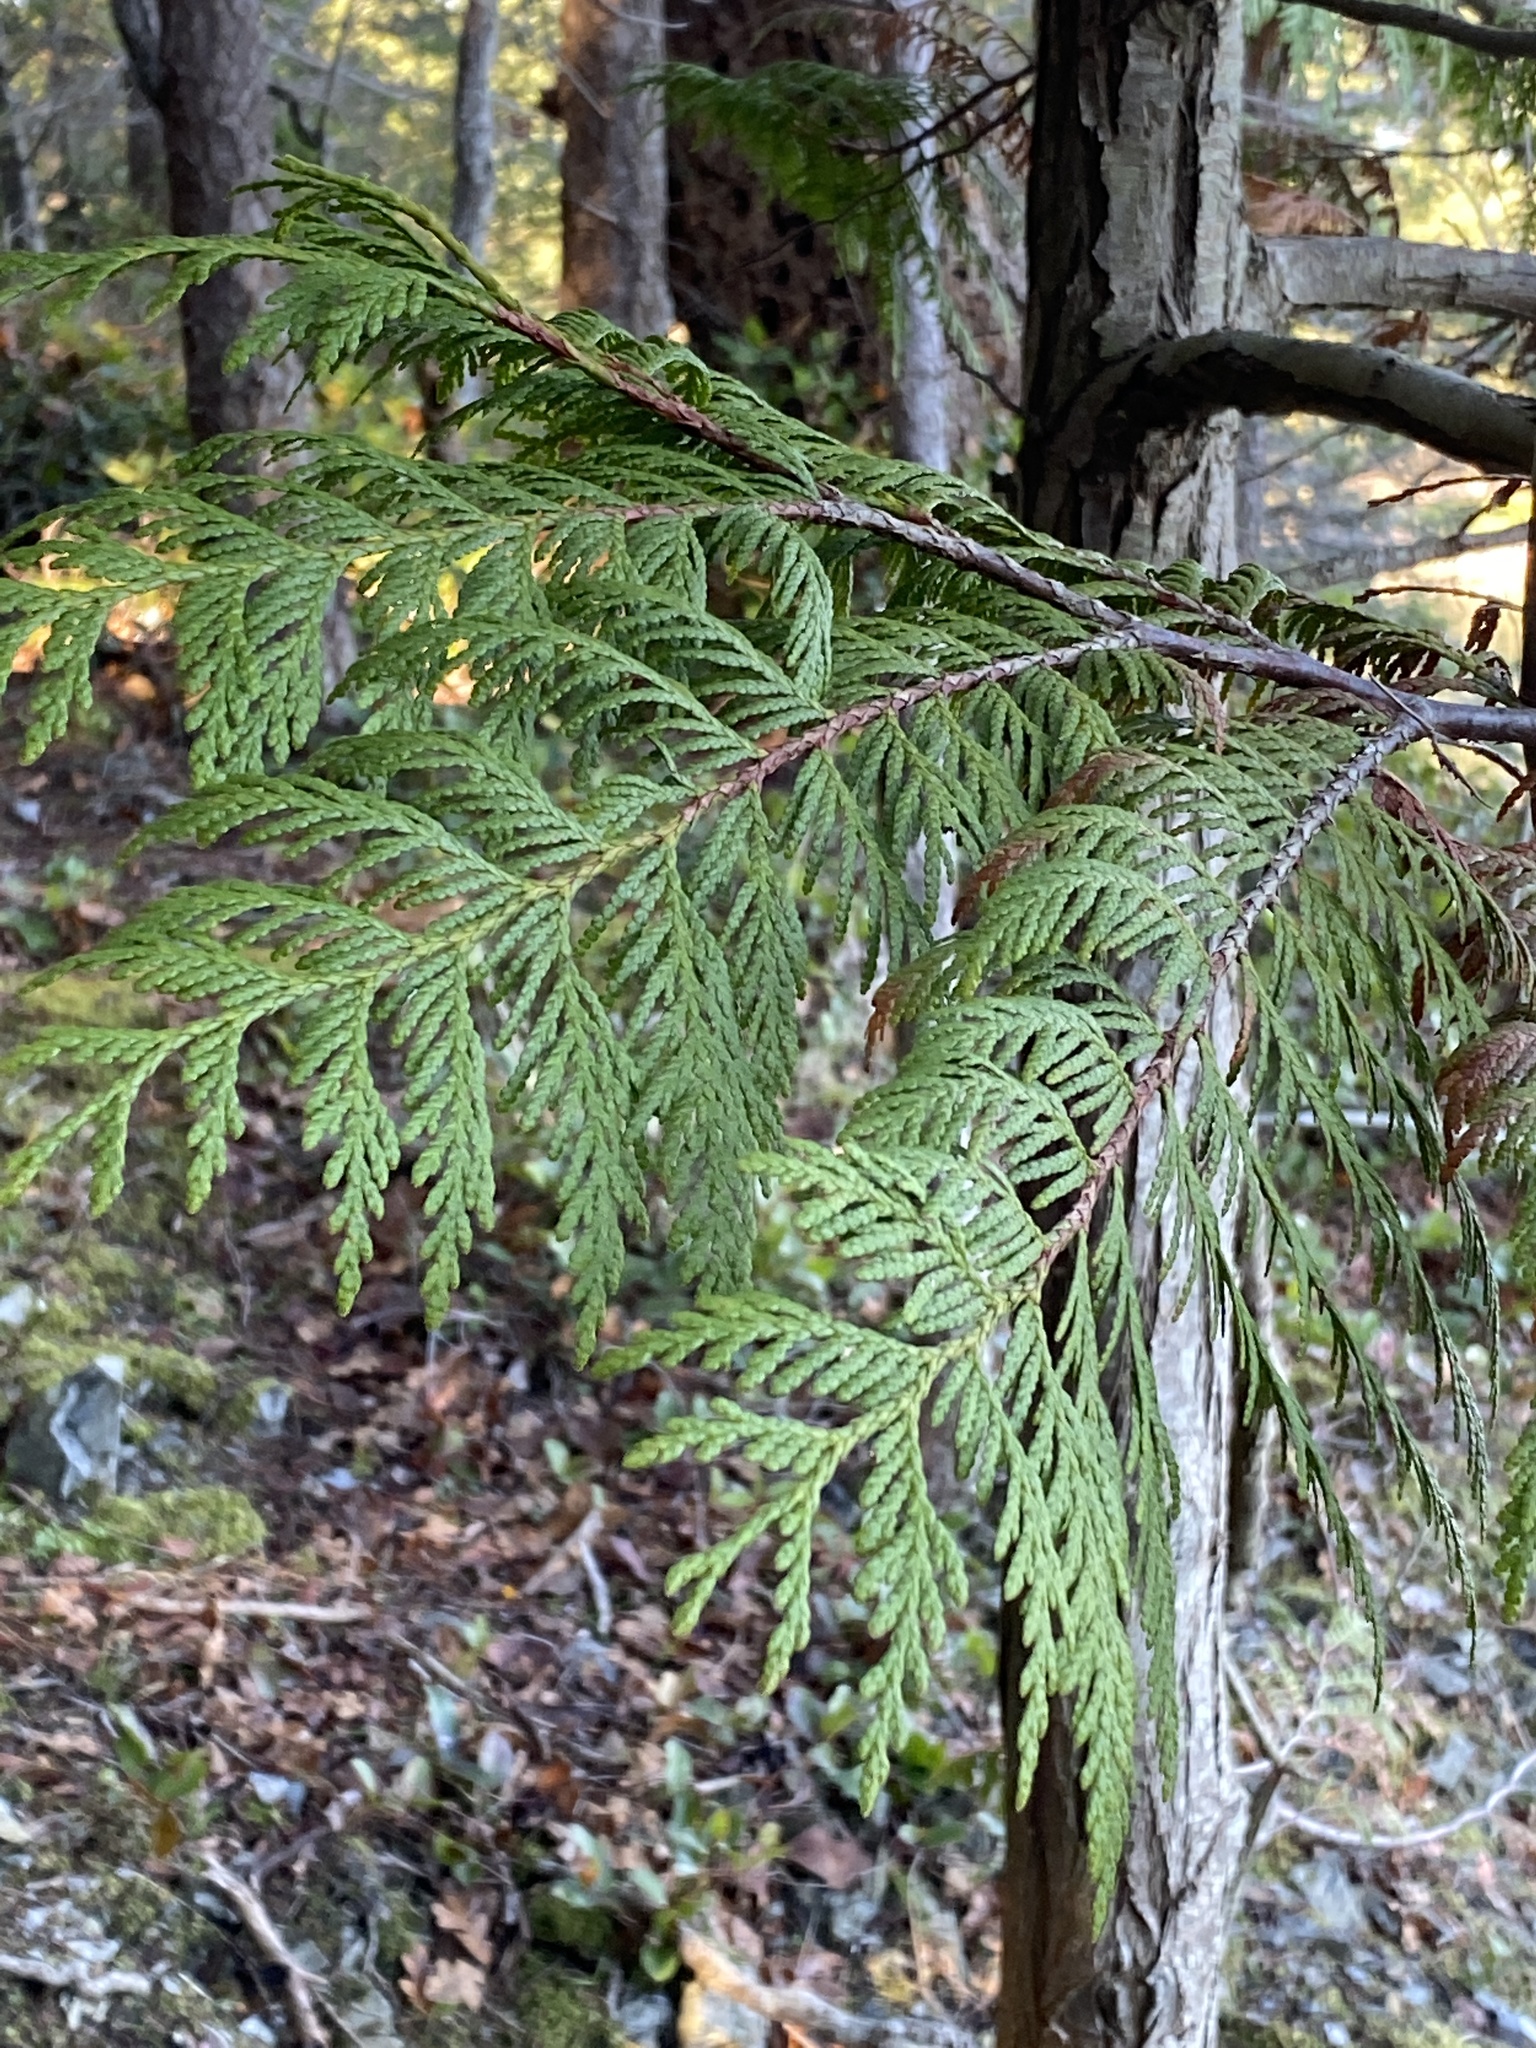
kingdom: Plantae
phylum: Tracheophyta
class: Pinopsida
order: Pinales
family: Cupressaceae
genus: Thuja
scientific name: Thuja plicata
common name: Western red-cedar
